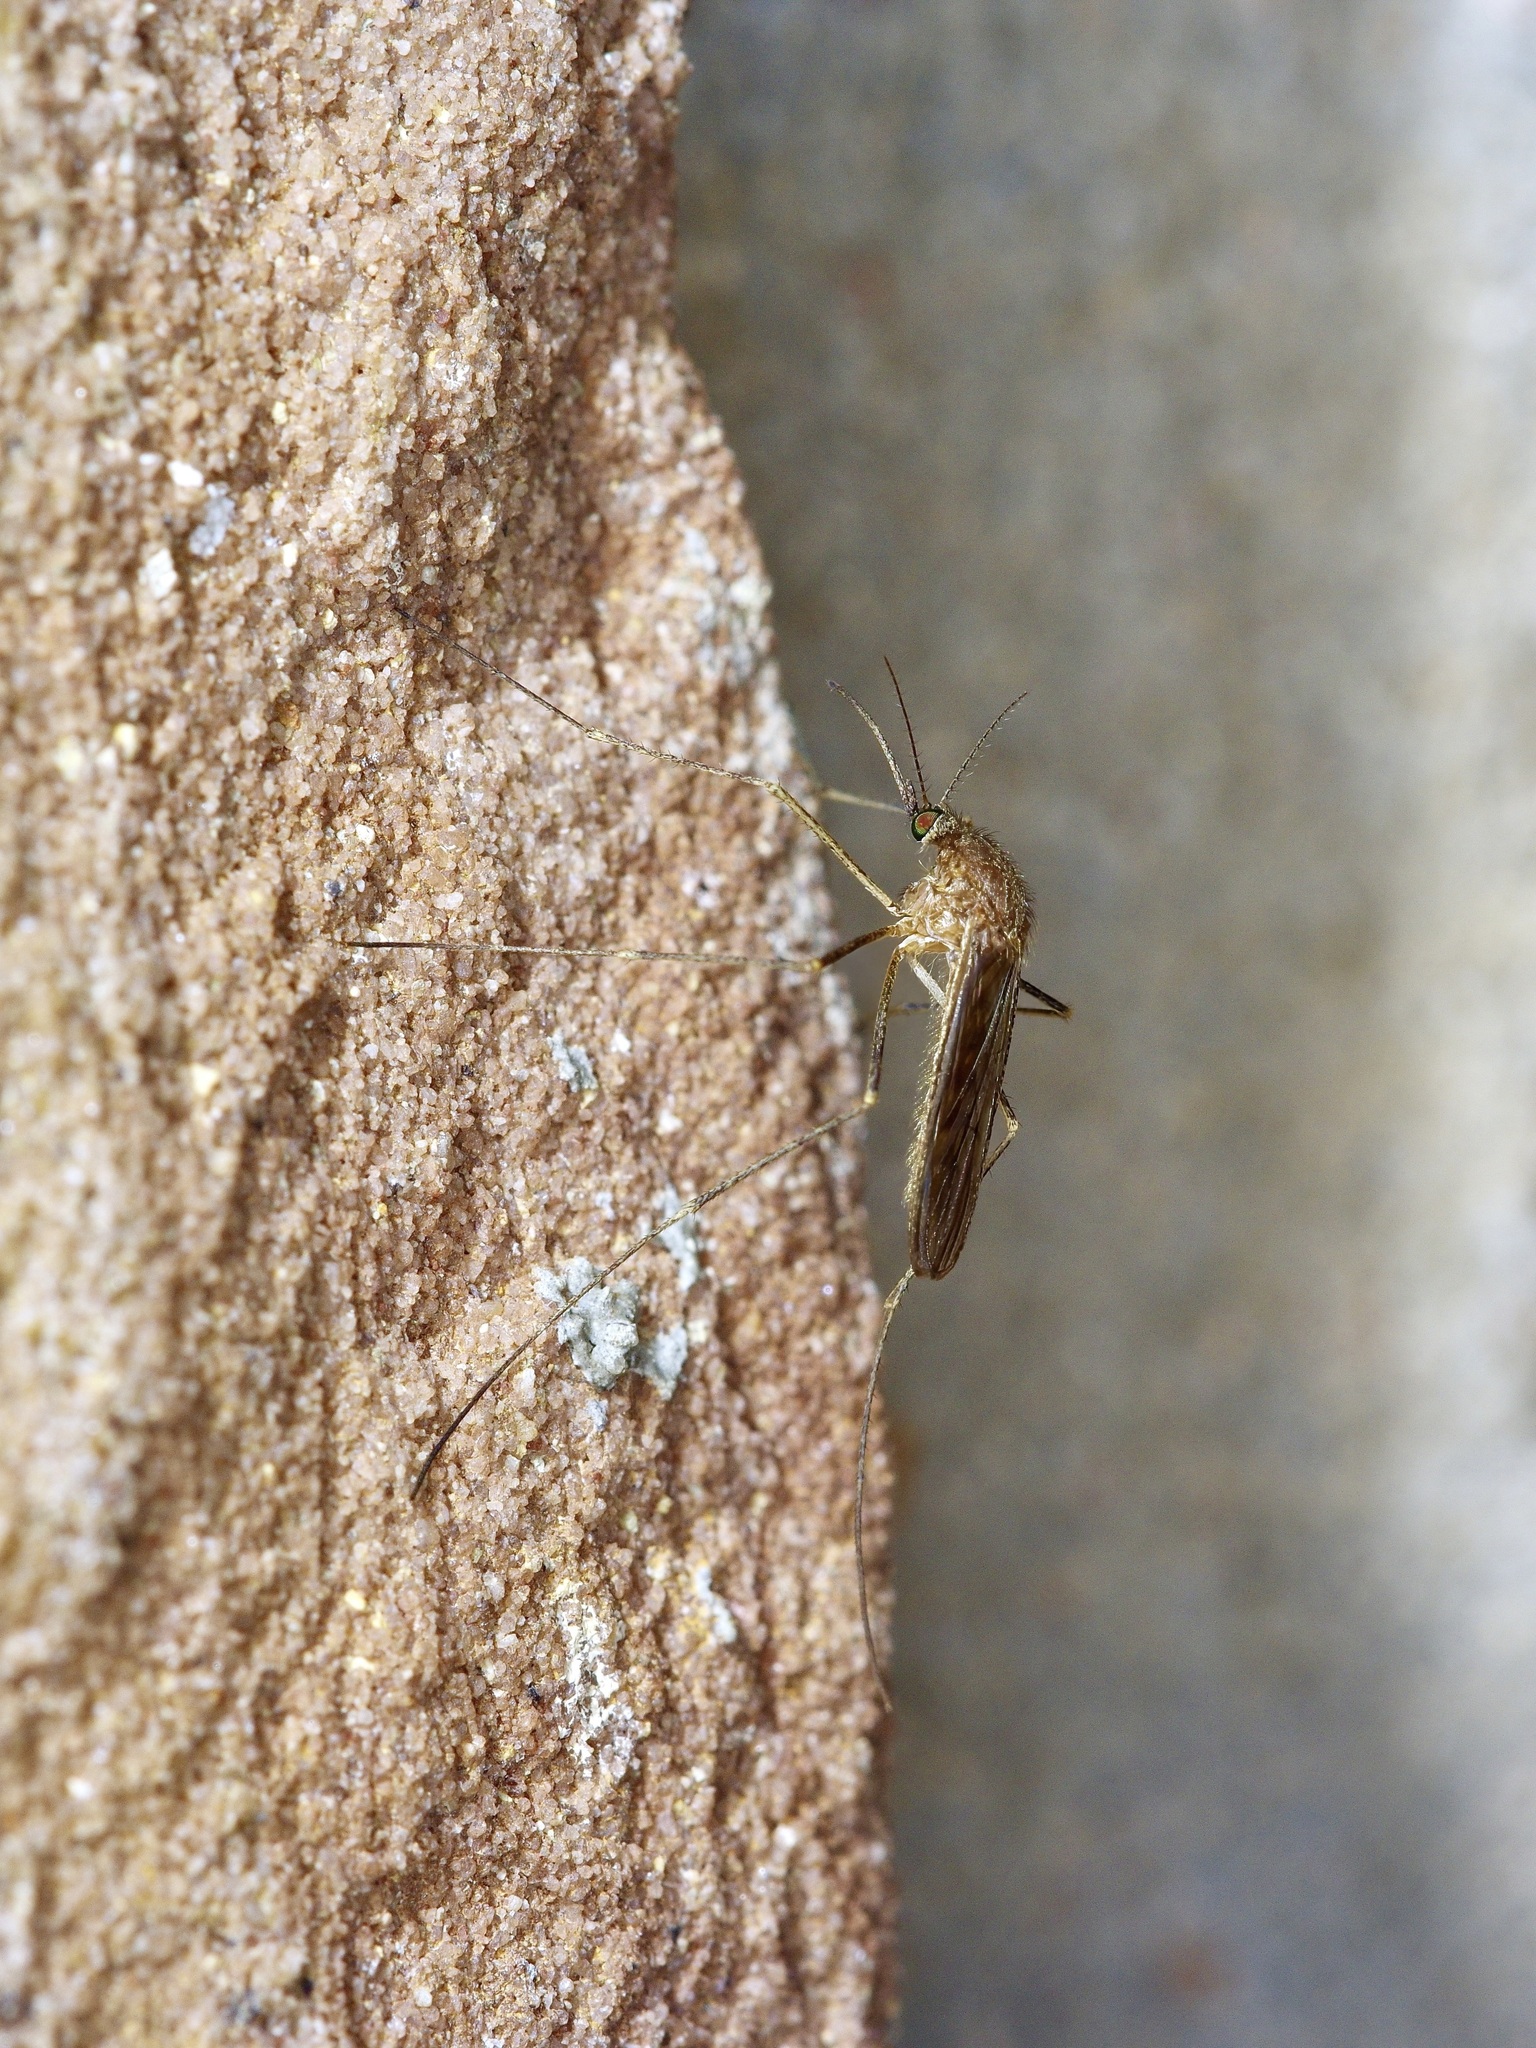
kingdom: Animalia
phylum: Arthropoda
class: Insecta
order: Diptera
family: Culicidae
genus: Culiseta
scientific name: Culiseta inornata
